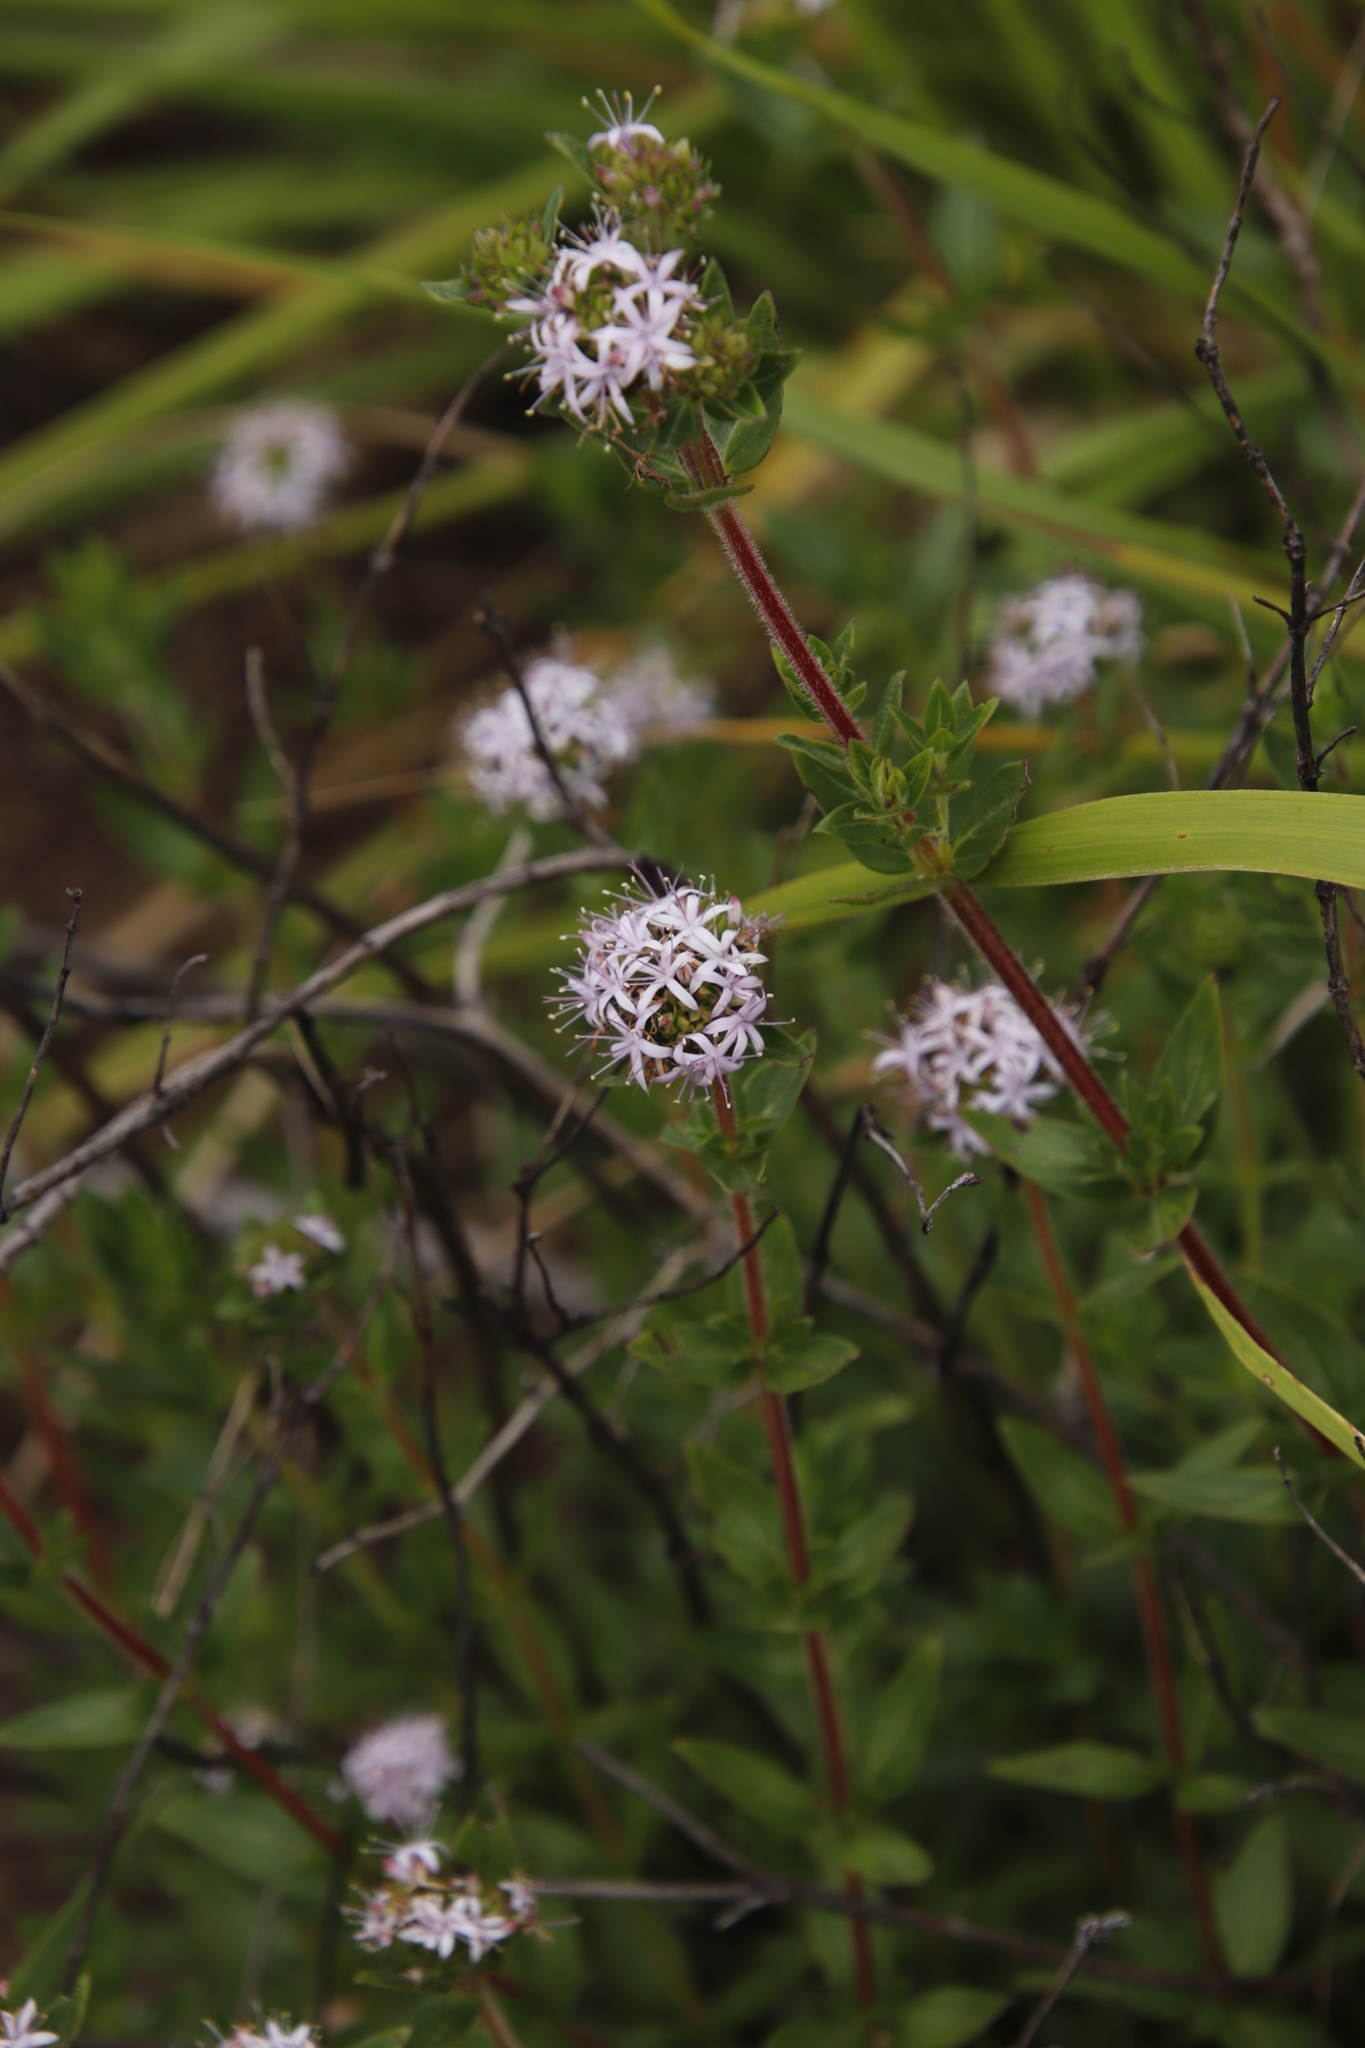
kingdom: Plantae
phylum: Tracheophyta
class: Magnoliopsida
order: Gentianales
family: Rubiaceae
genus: Otiophora
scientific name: Otiophora inyangana
